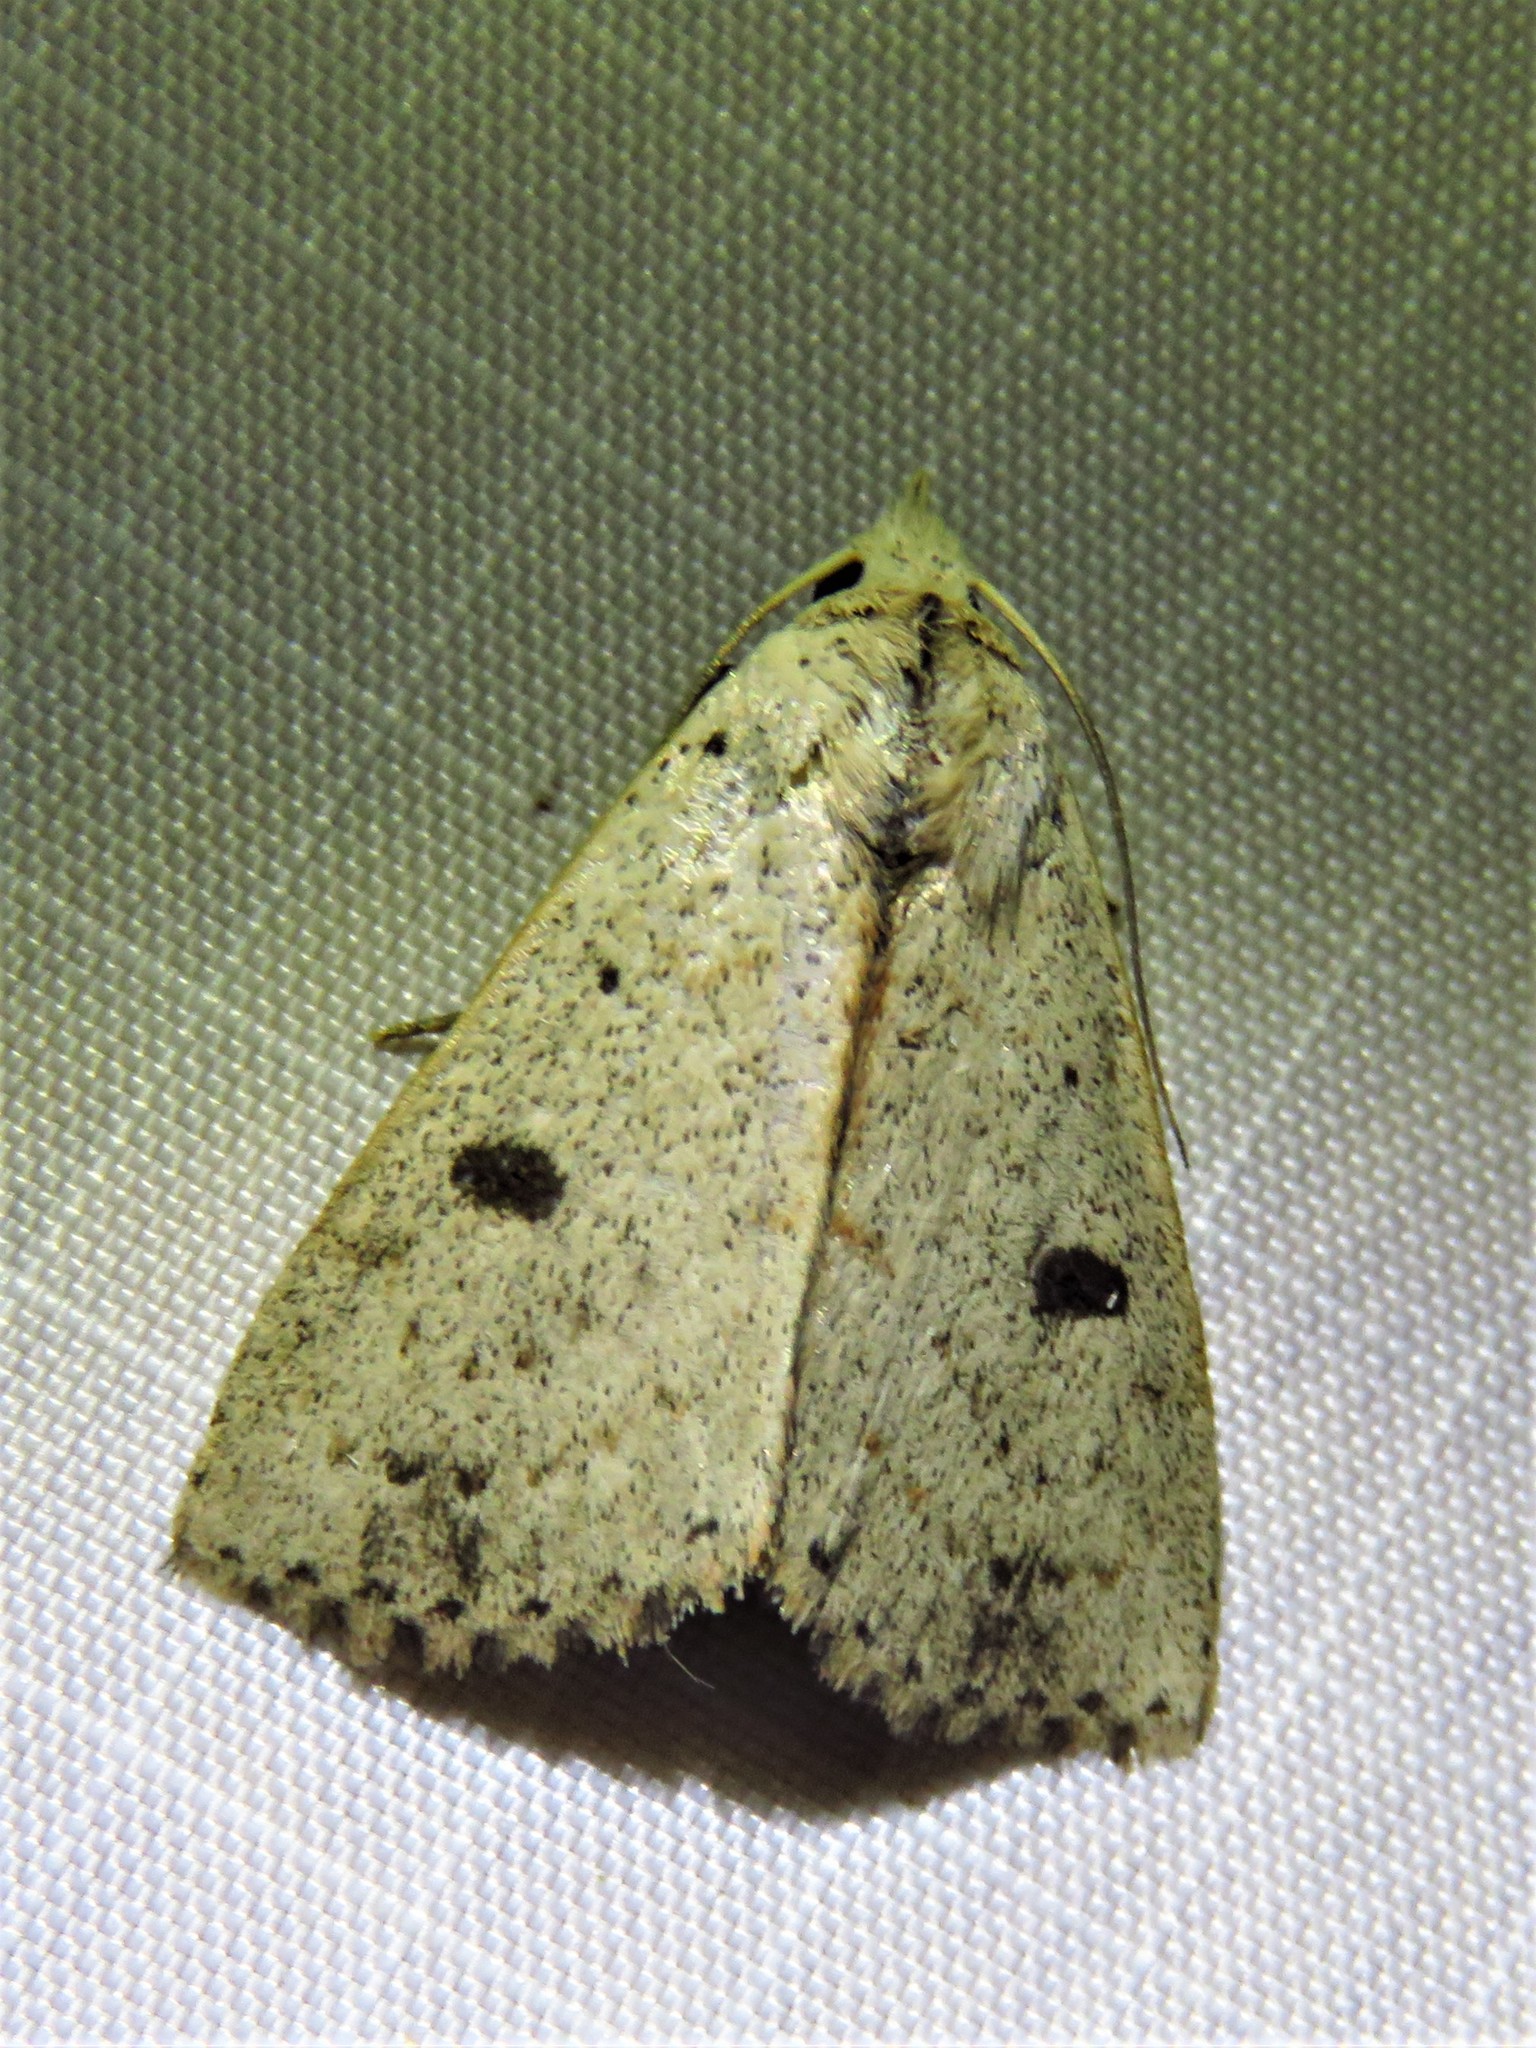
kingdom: Animalia
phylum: Arthropoda
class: Insecta
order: Lepidoptera
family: Erebidae
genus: Scolecocampa
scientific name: Scolecocampa liburna
